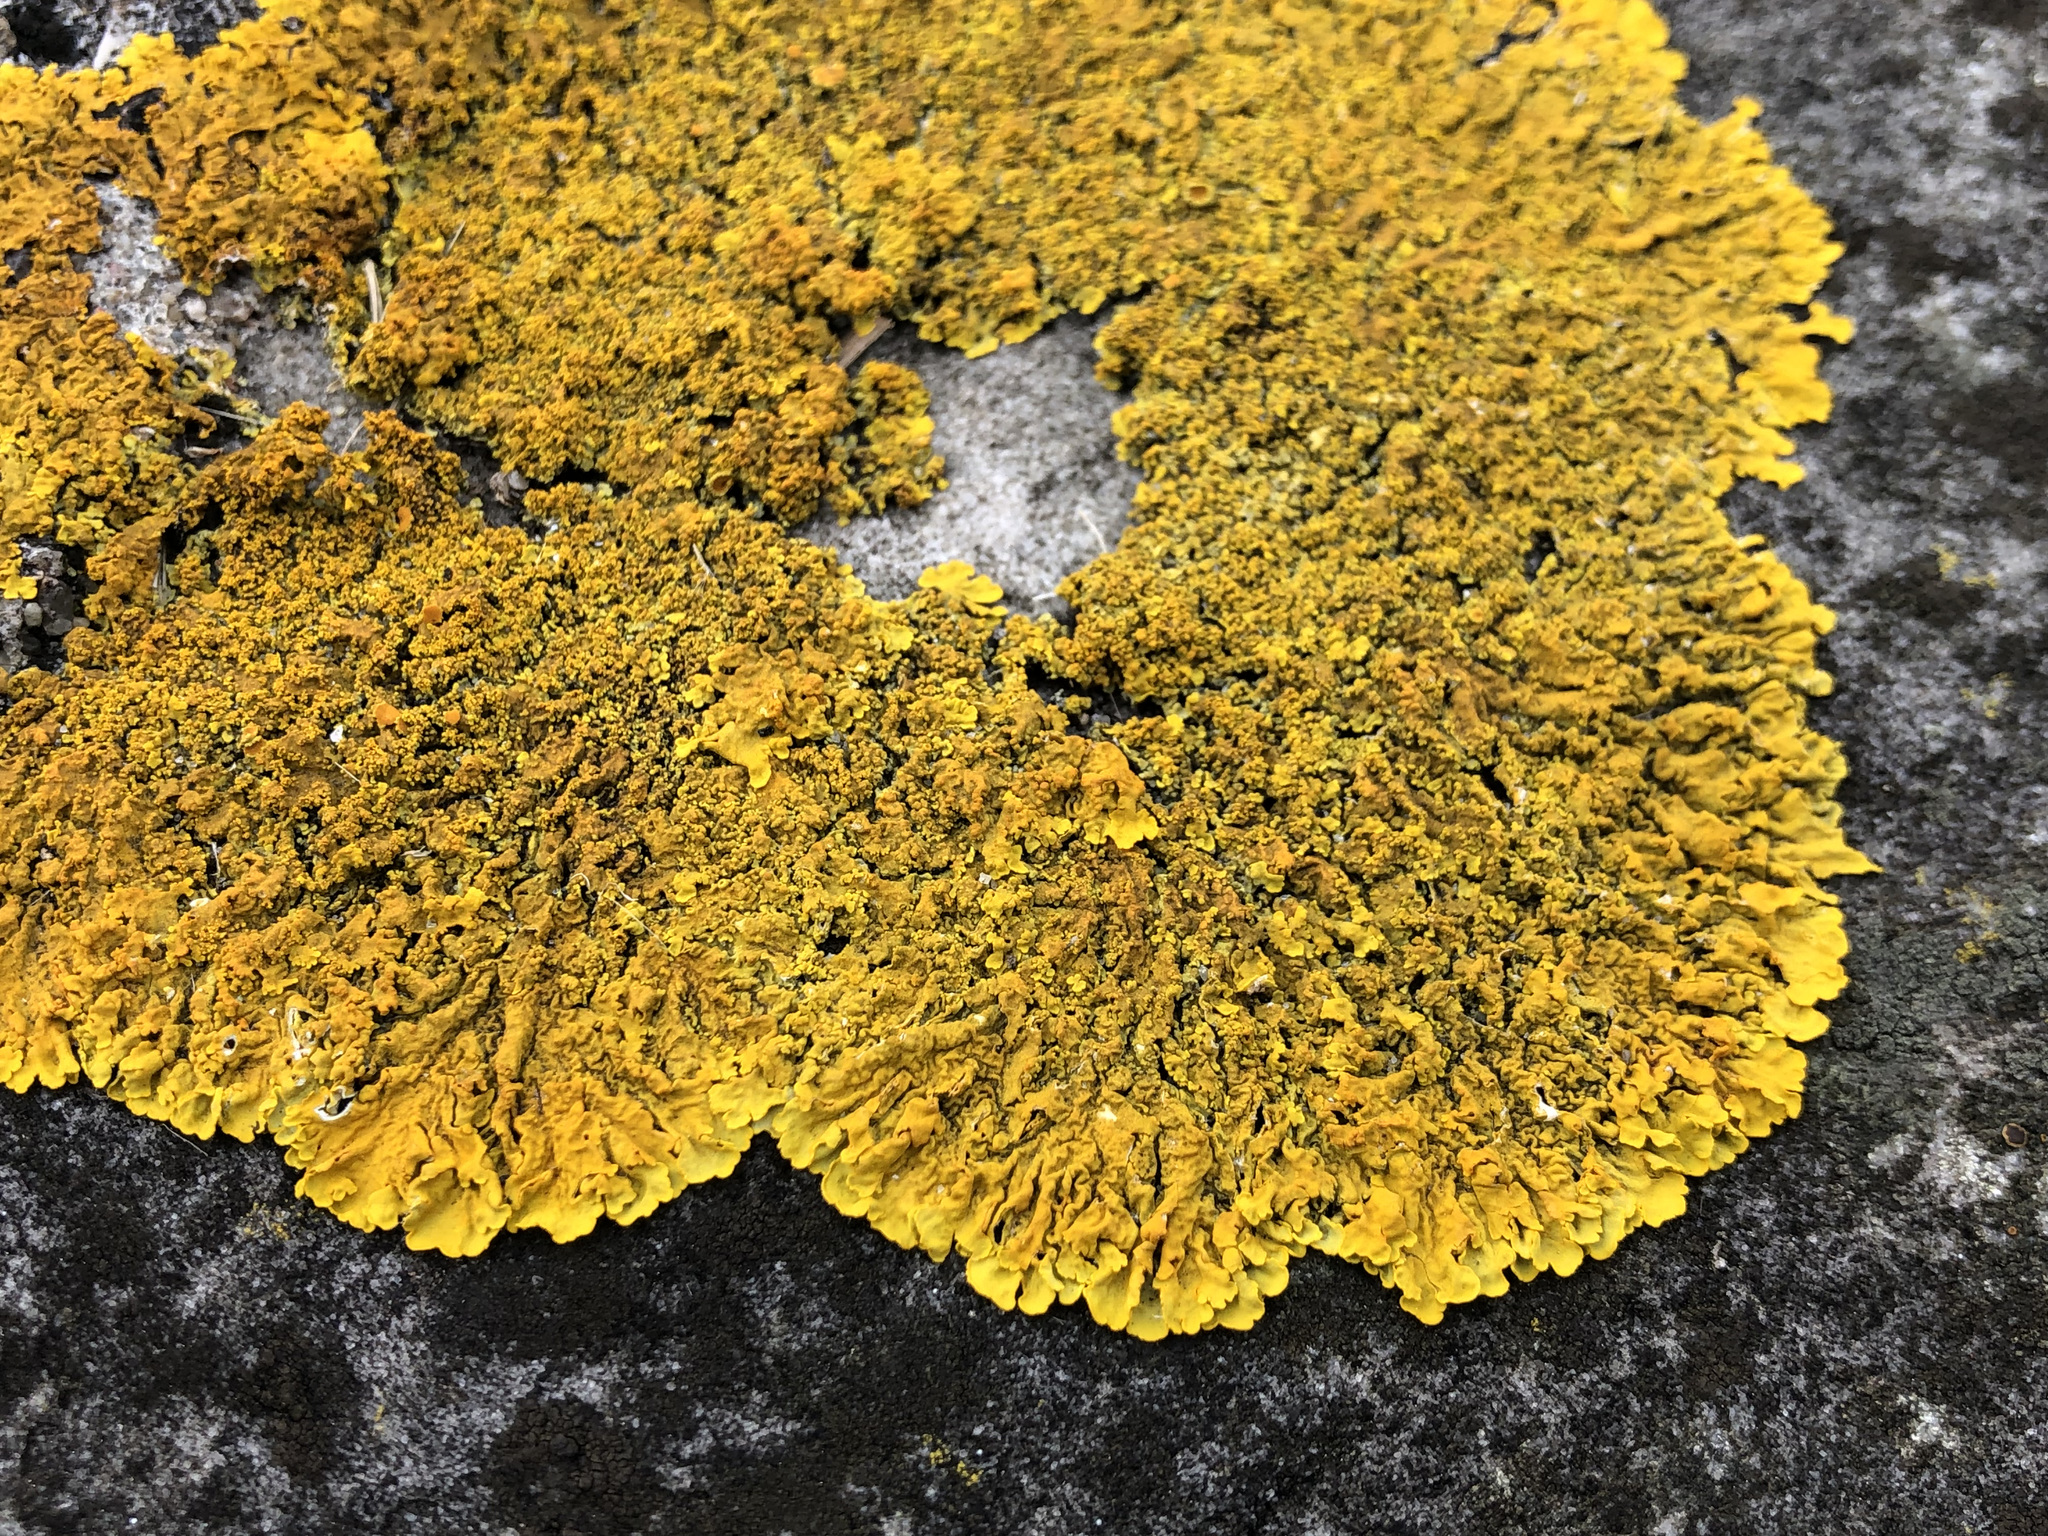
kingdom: Fungi
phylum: Ascomycota
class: Lecanoromycetes
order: Teloschistales
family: Teloschistaceae
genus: Xanthoria
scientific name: Xanthoria calcicola
